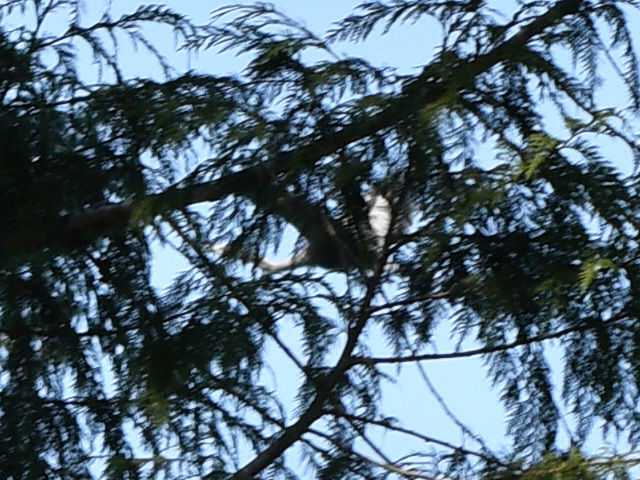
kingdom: Animalia
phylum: Chordata
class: Aves
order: Pelecaniformes
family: Ardeidae
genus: Ardea
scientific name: Ardea herodias
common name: Great blue heron
